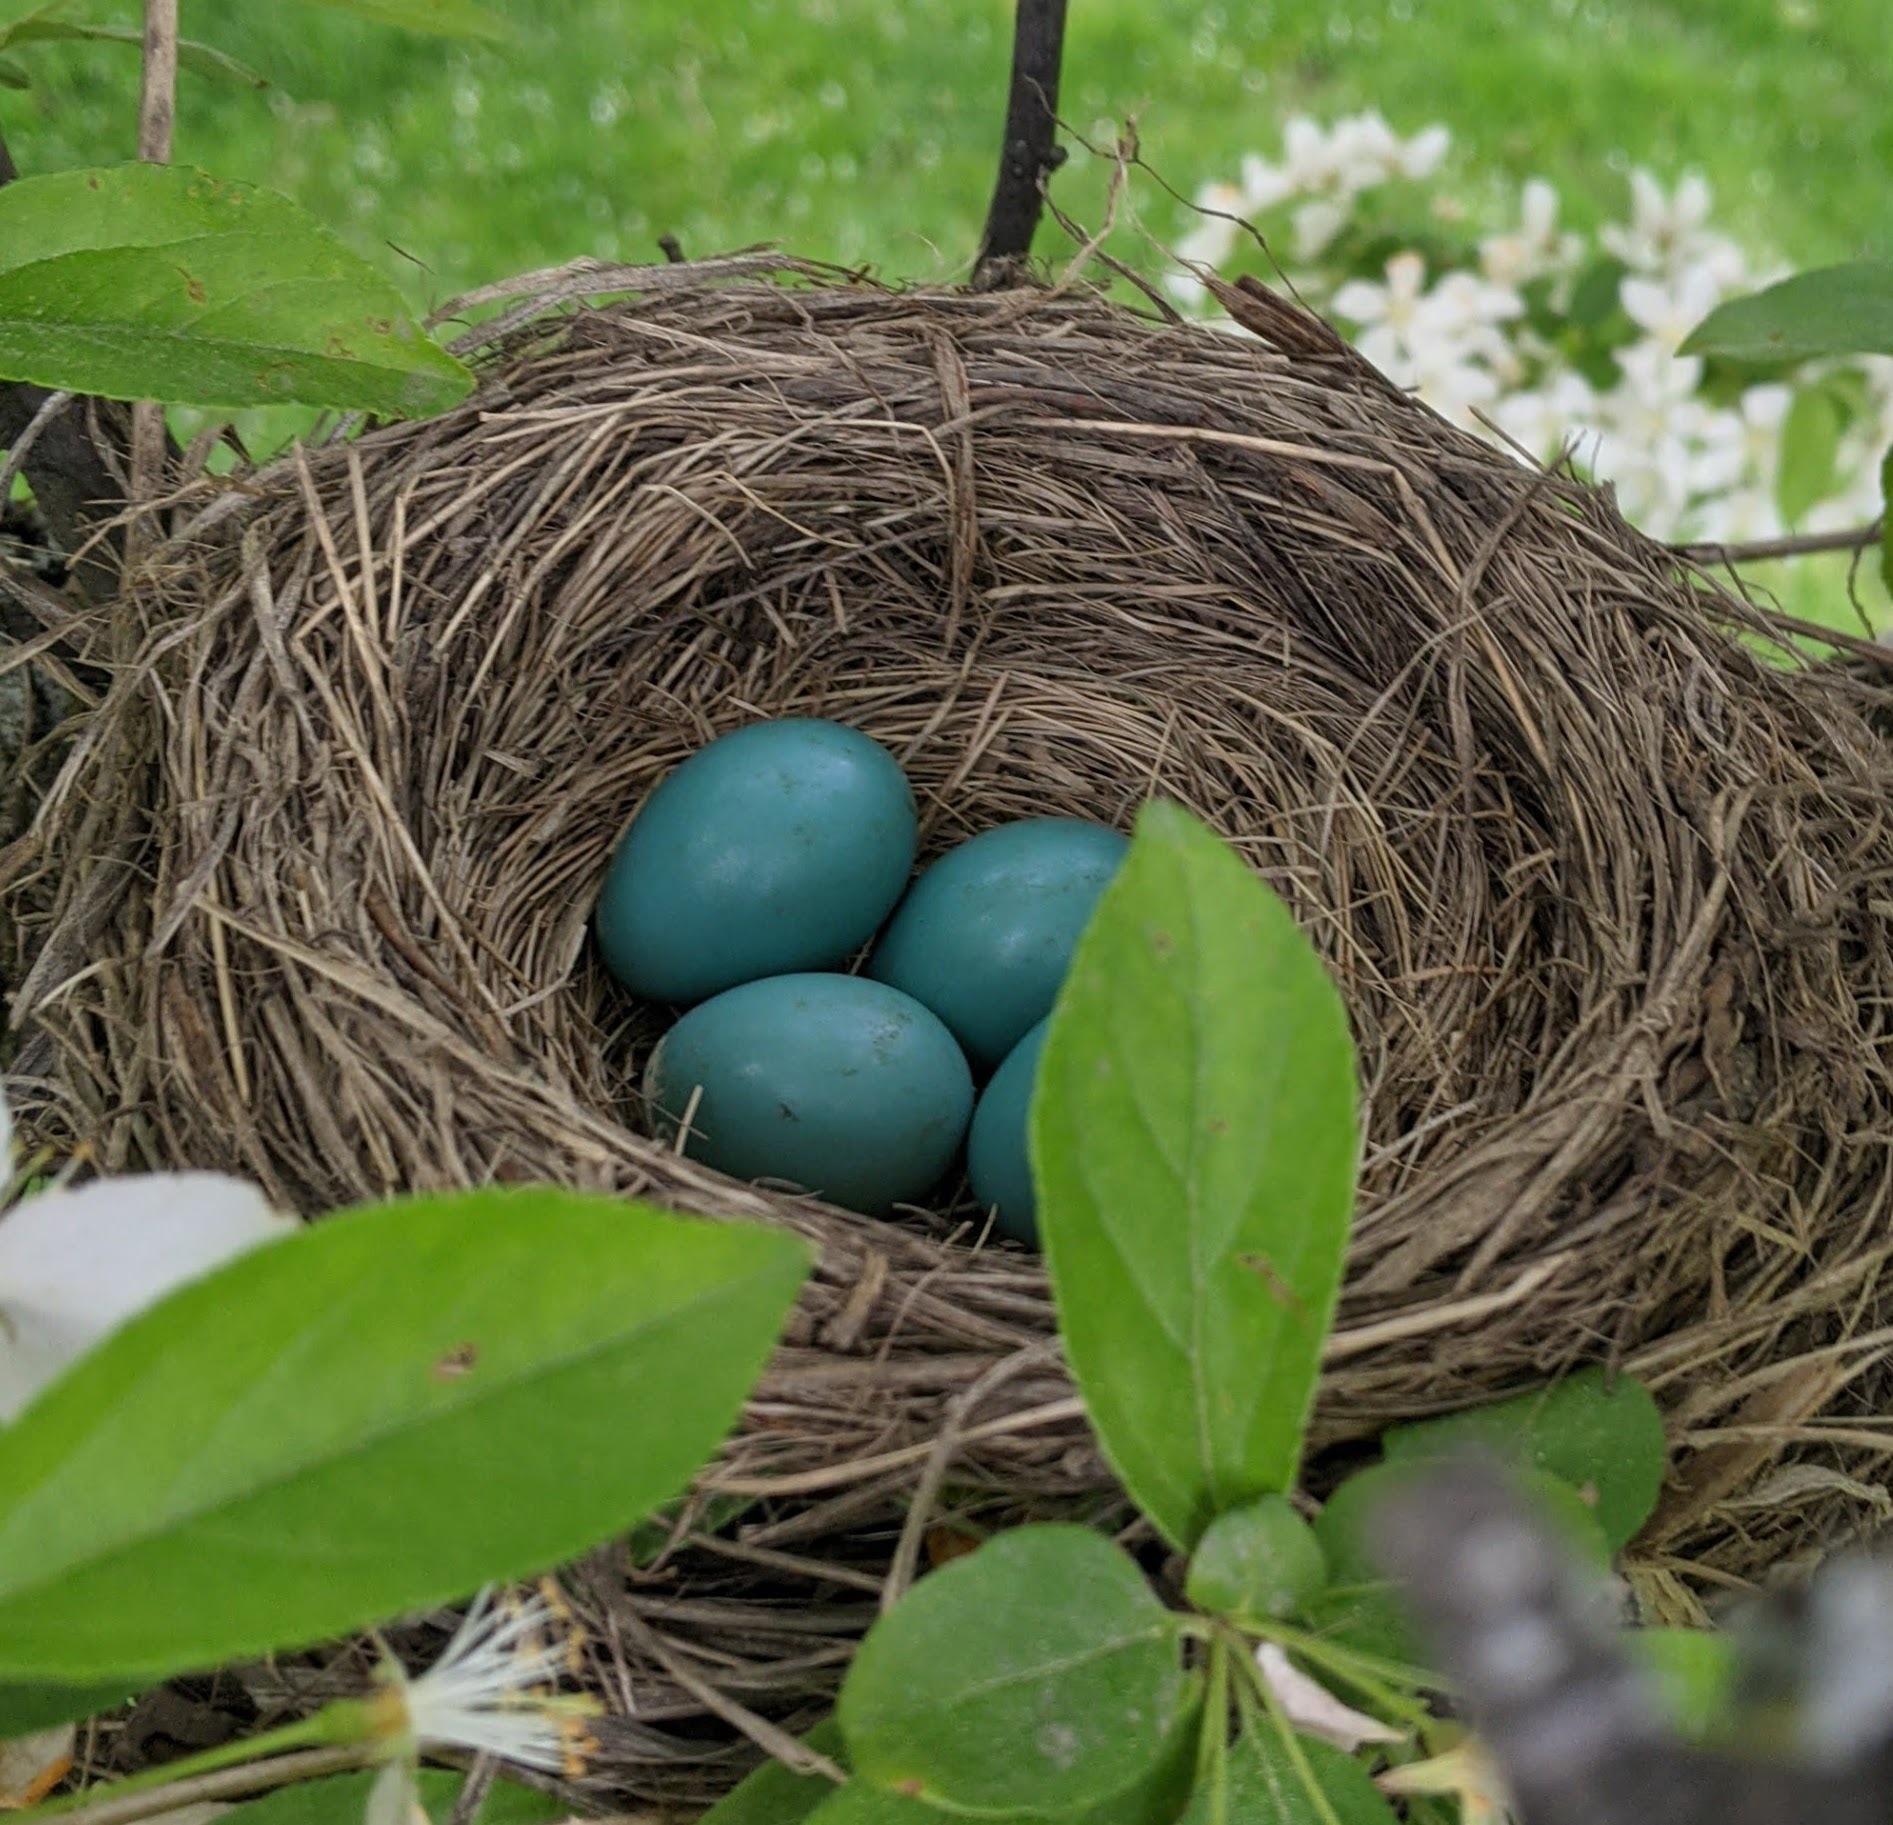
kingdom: Animalia
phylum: Chordata
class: Aves
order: Passeriformes
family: Turdidae
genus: Turdus
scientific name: Turdus migratorius
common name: American robin
